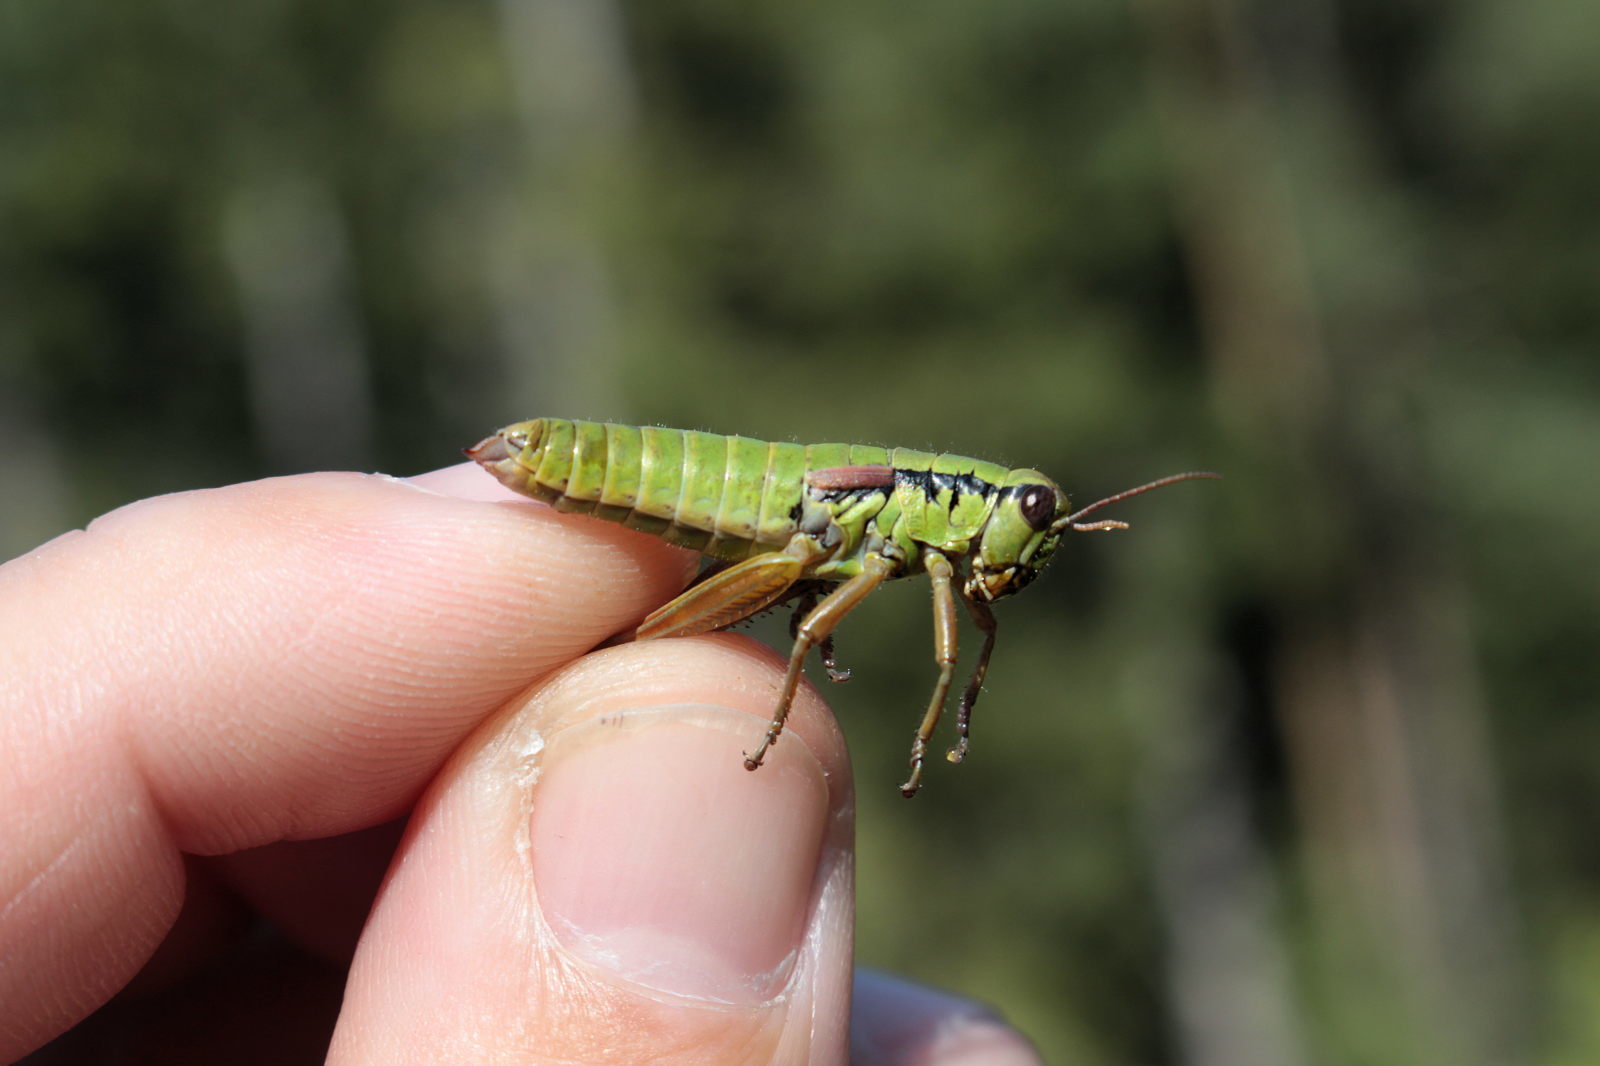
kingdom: Animalia
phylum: Arthropoda
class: Insecta
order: Orthoptera
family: Acrididae
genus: Pseudopodisma
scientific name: Pseudopodisma nagyi
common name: Nagy's mountain grasshopper
